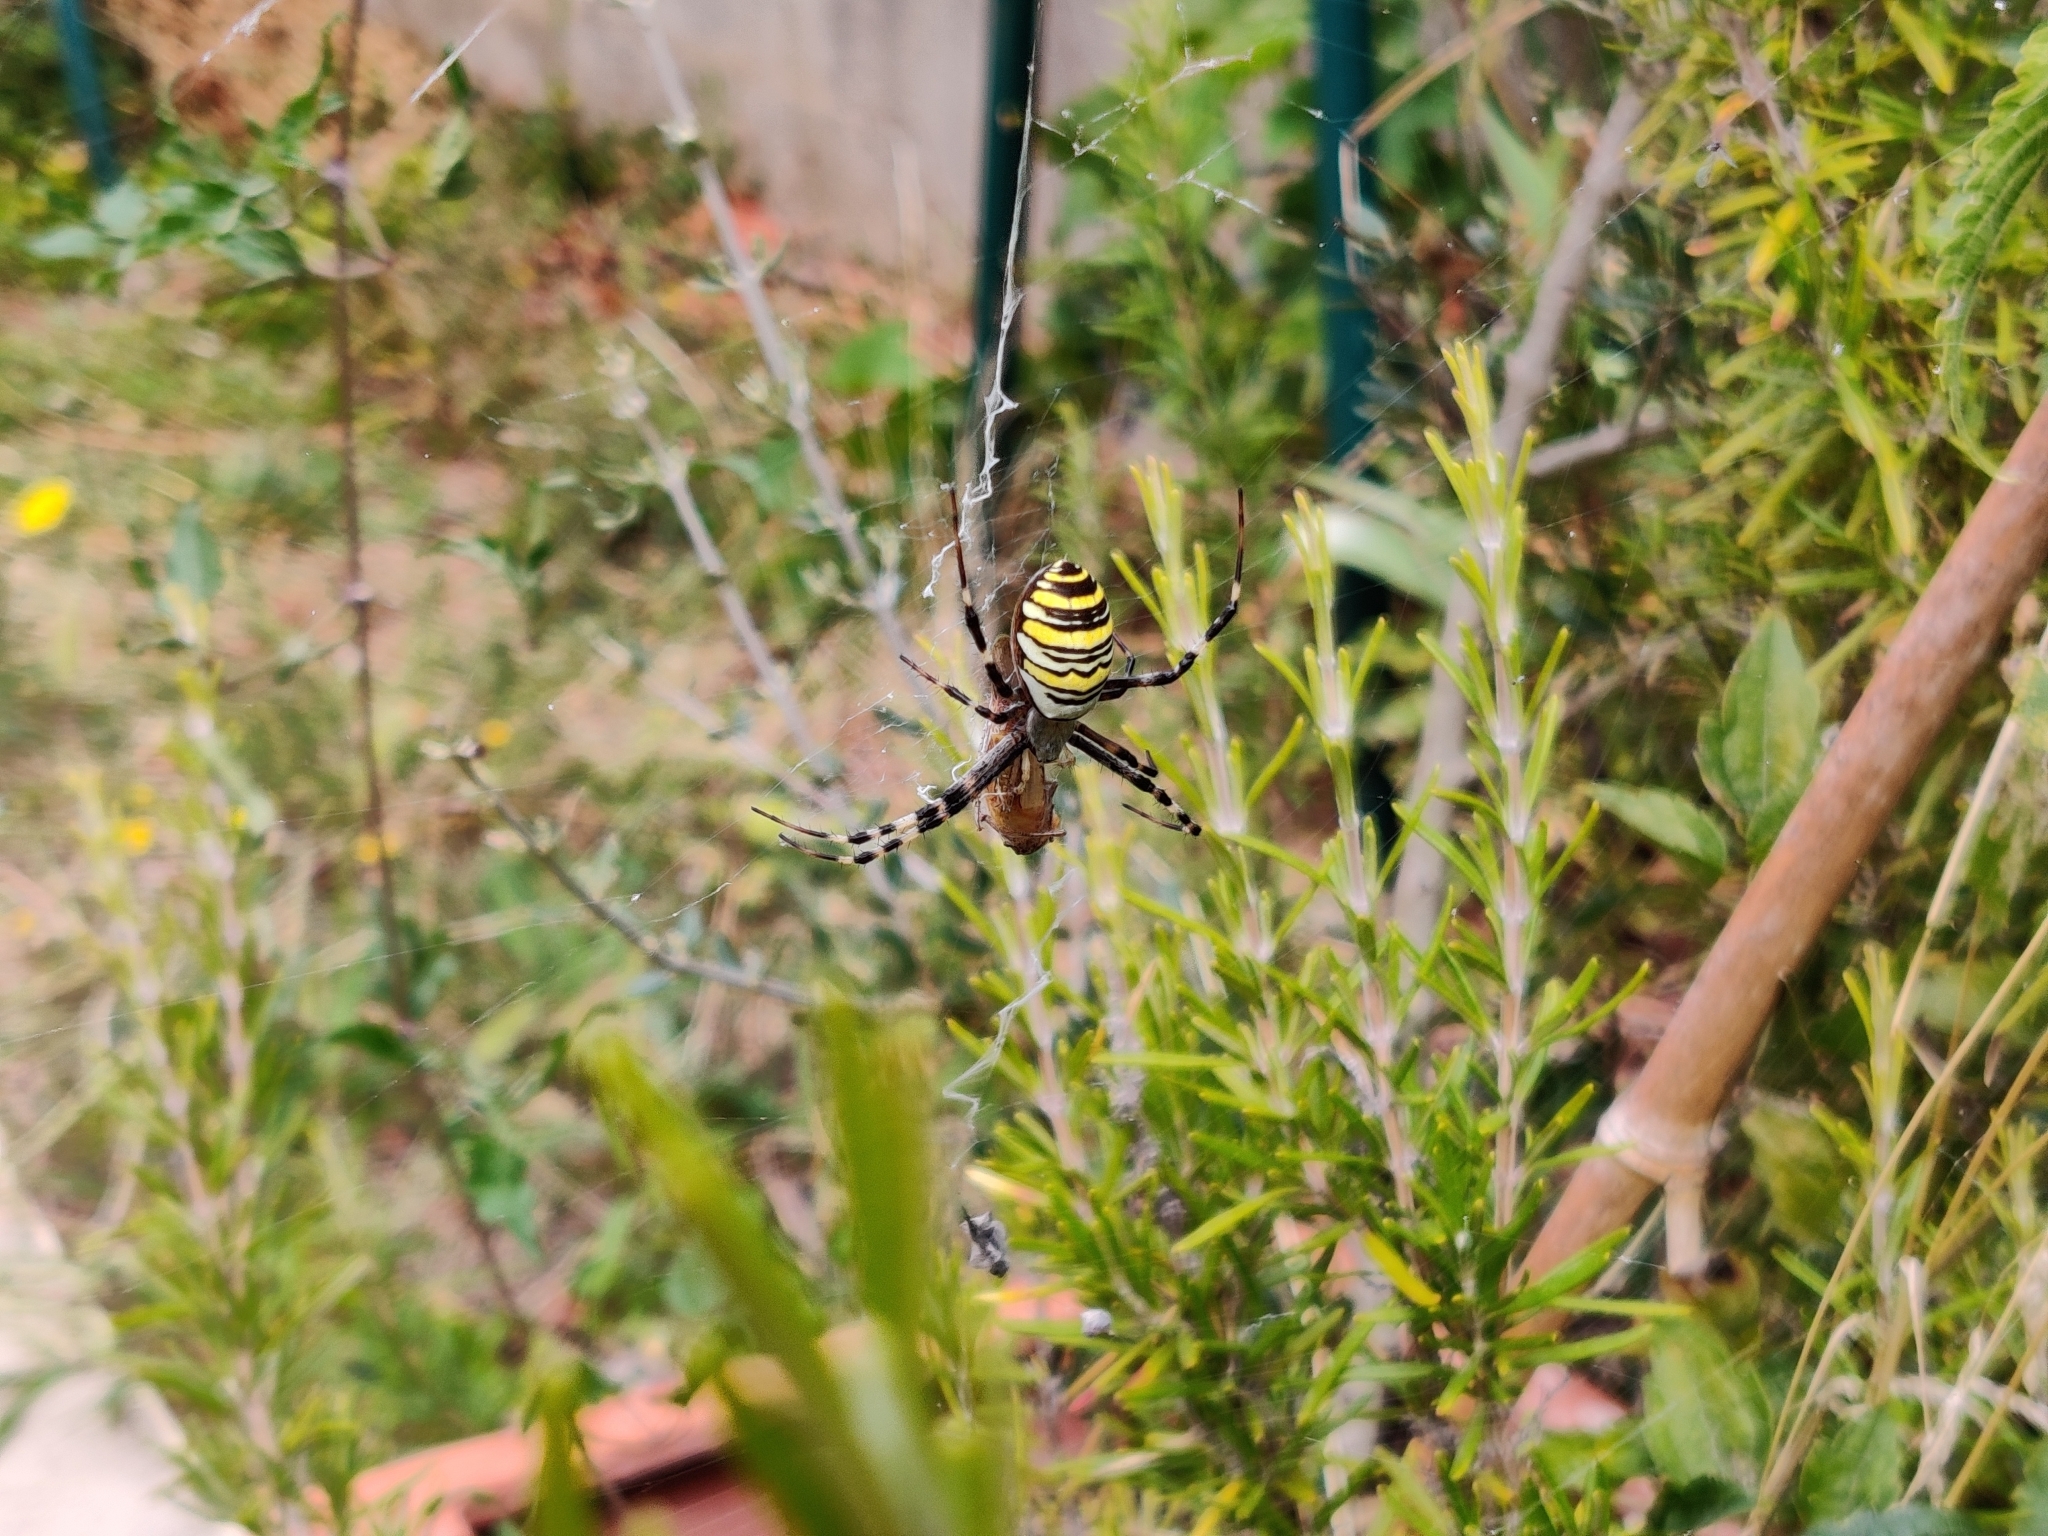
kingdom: Animalia
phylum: Arthropoda
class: Arachnida
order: Araneae
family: Araneidae
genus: Argiope
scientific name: Argiope bruennichi
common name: Wasp spider
